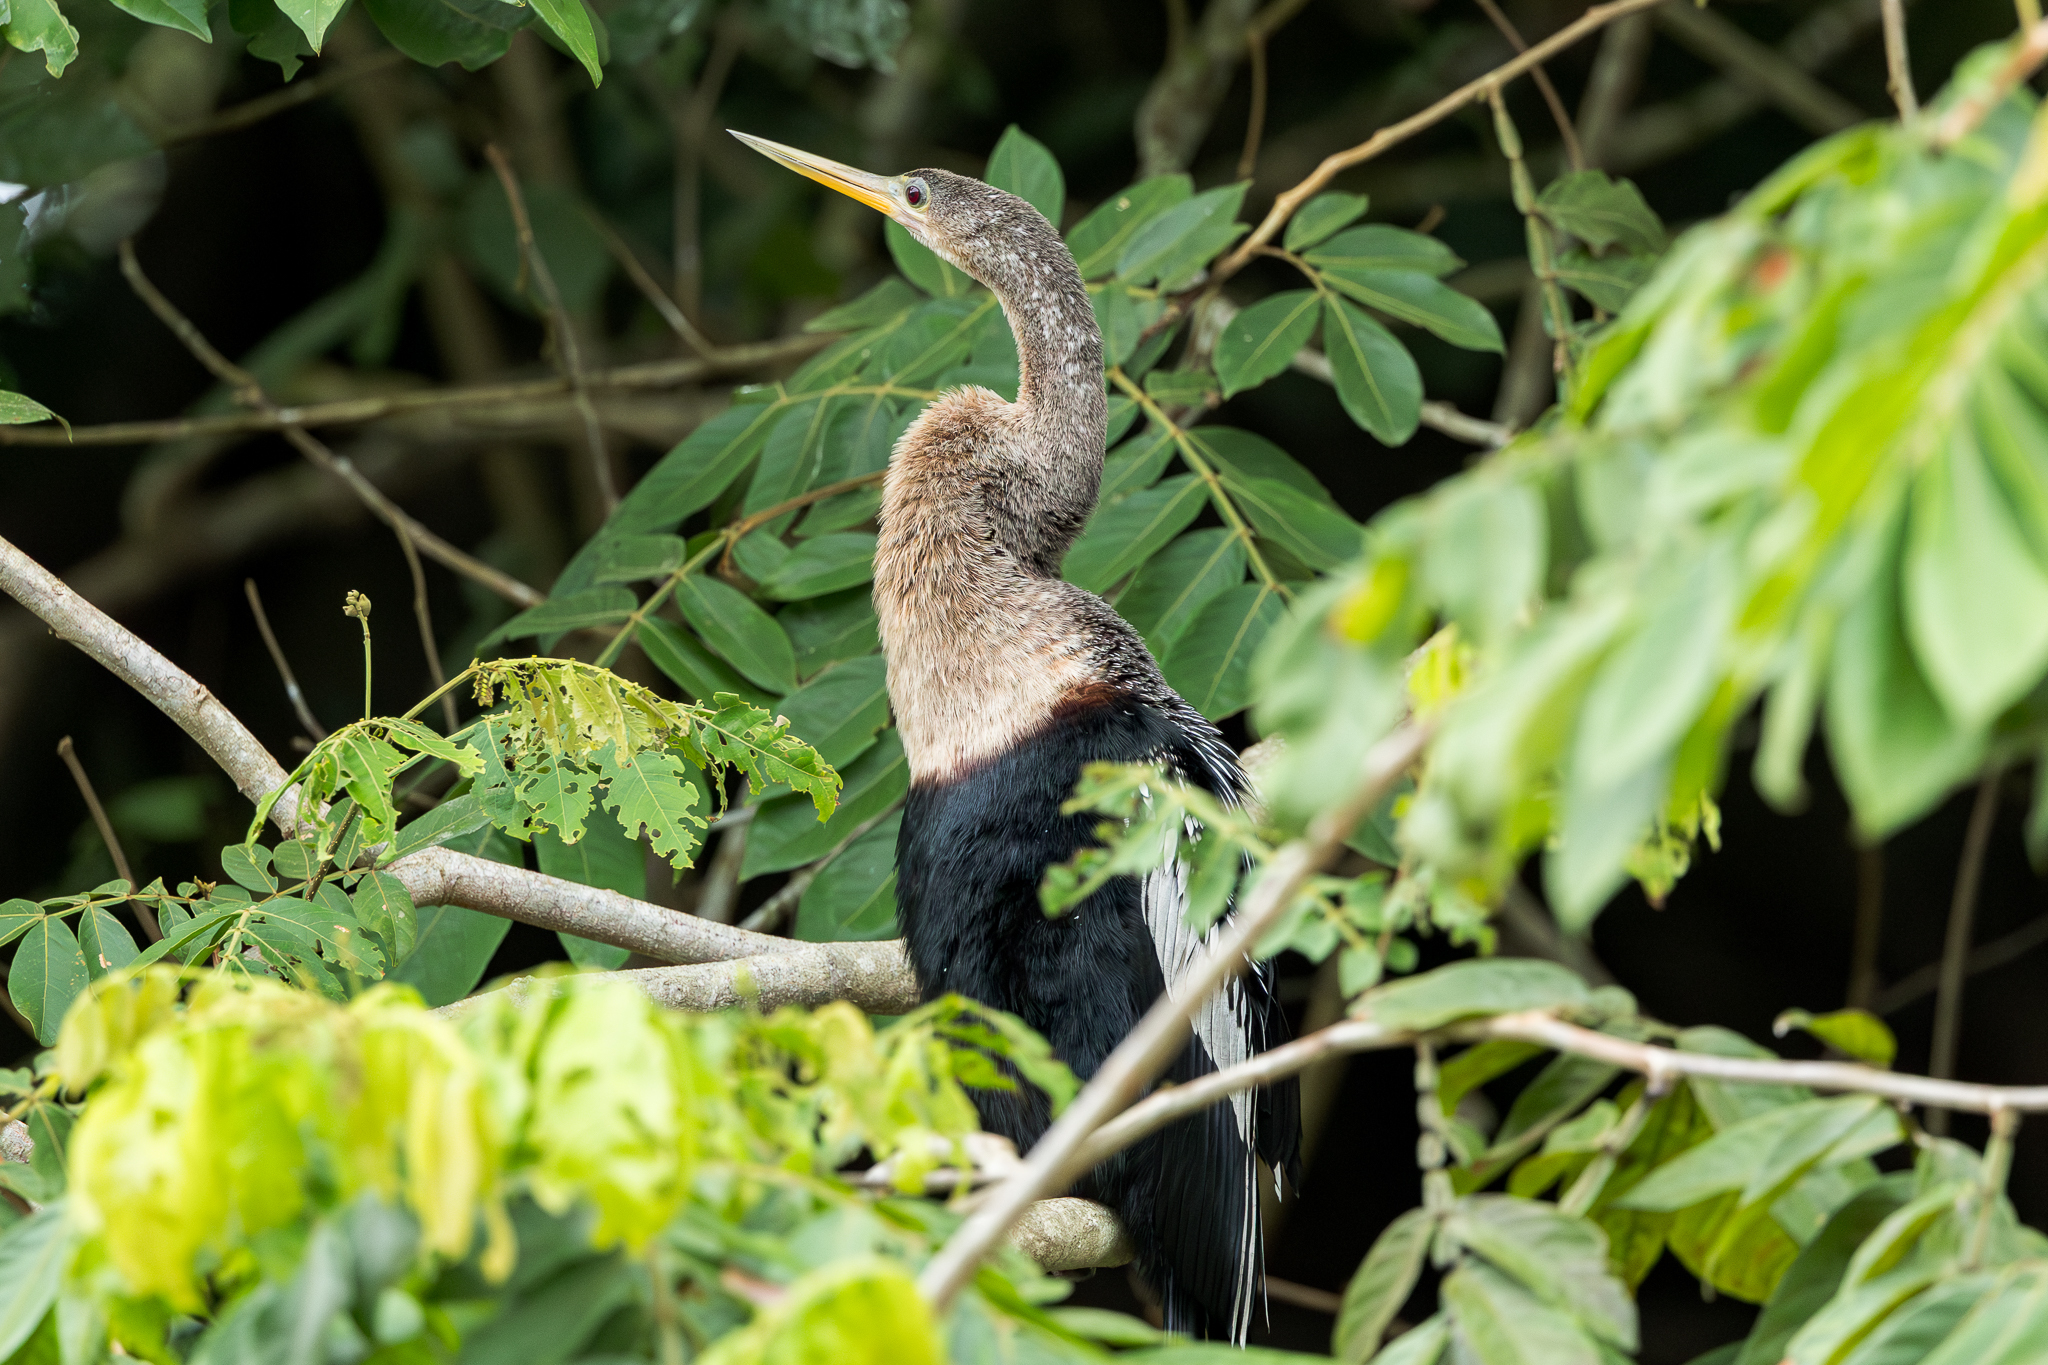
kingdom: Animalia
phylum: Chordata
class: Aves
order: Suliformes
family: Anhingidae
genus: Anhinga
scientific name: Anhinga anhinga
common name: Anhinga
